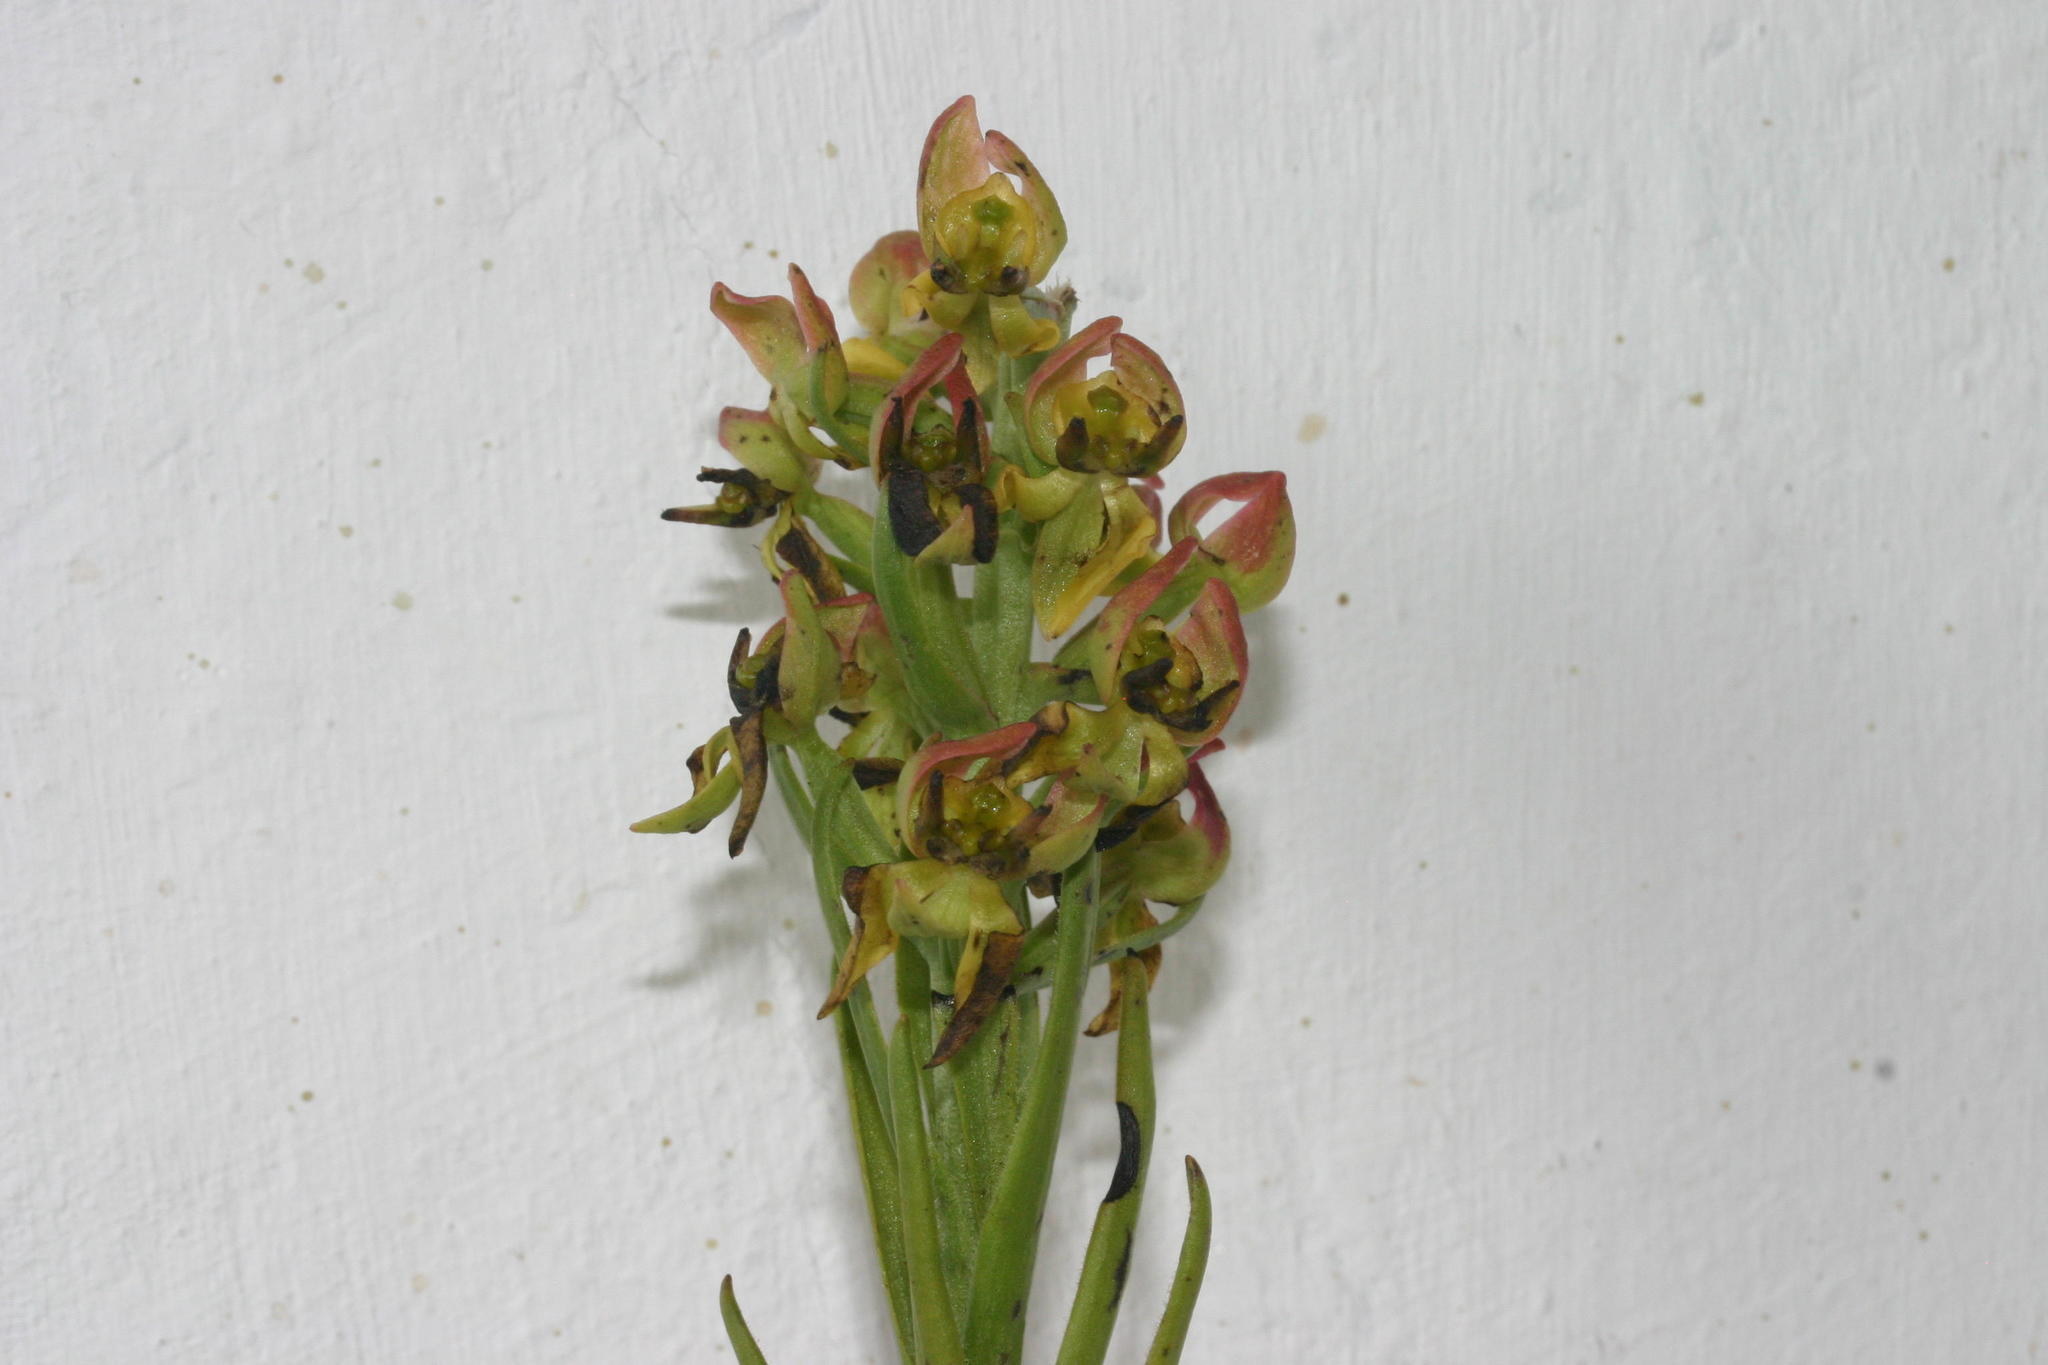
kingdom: Plantae
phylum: Tracheophyta
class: Liliopsida
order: Asparagales
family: Orchidaceae
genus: Ceratandra
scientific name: Ceratandra atrata
